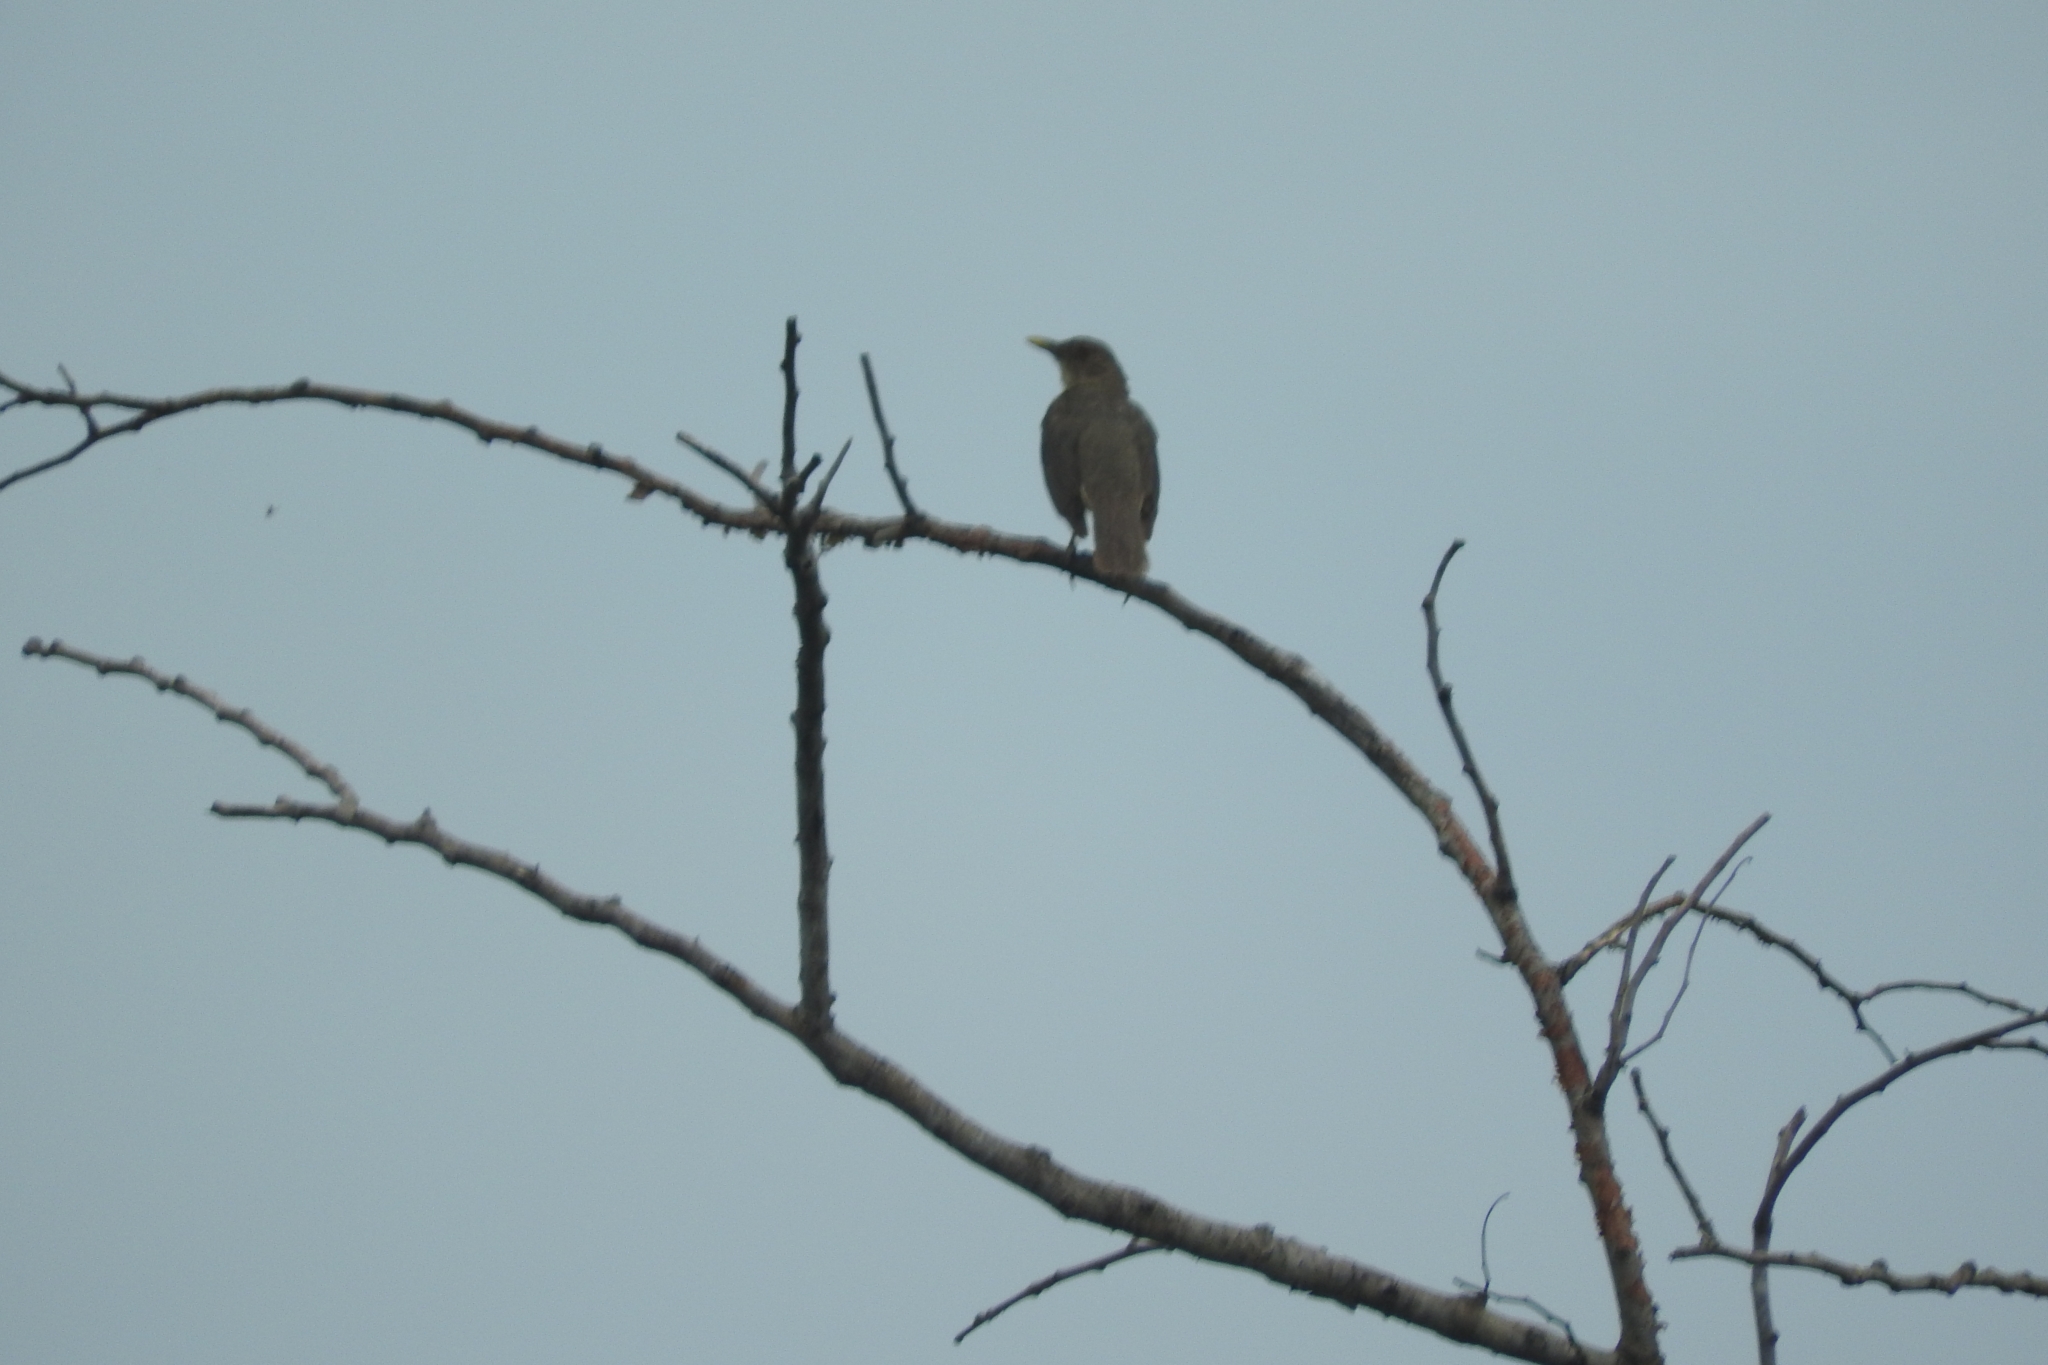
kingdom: Animalia
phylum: Chordata
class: Aves
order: Passeriformes
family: Turdidae
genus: Turdus
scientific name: Turdus grayi
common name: Clay-colored thrush
